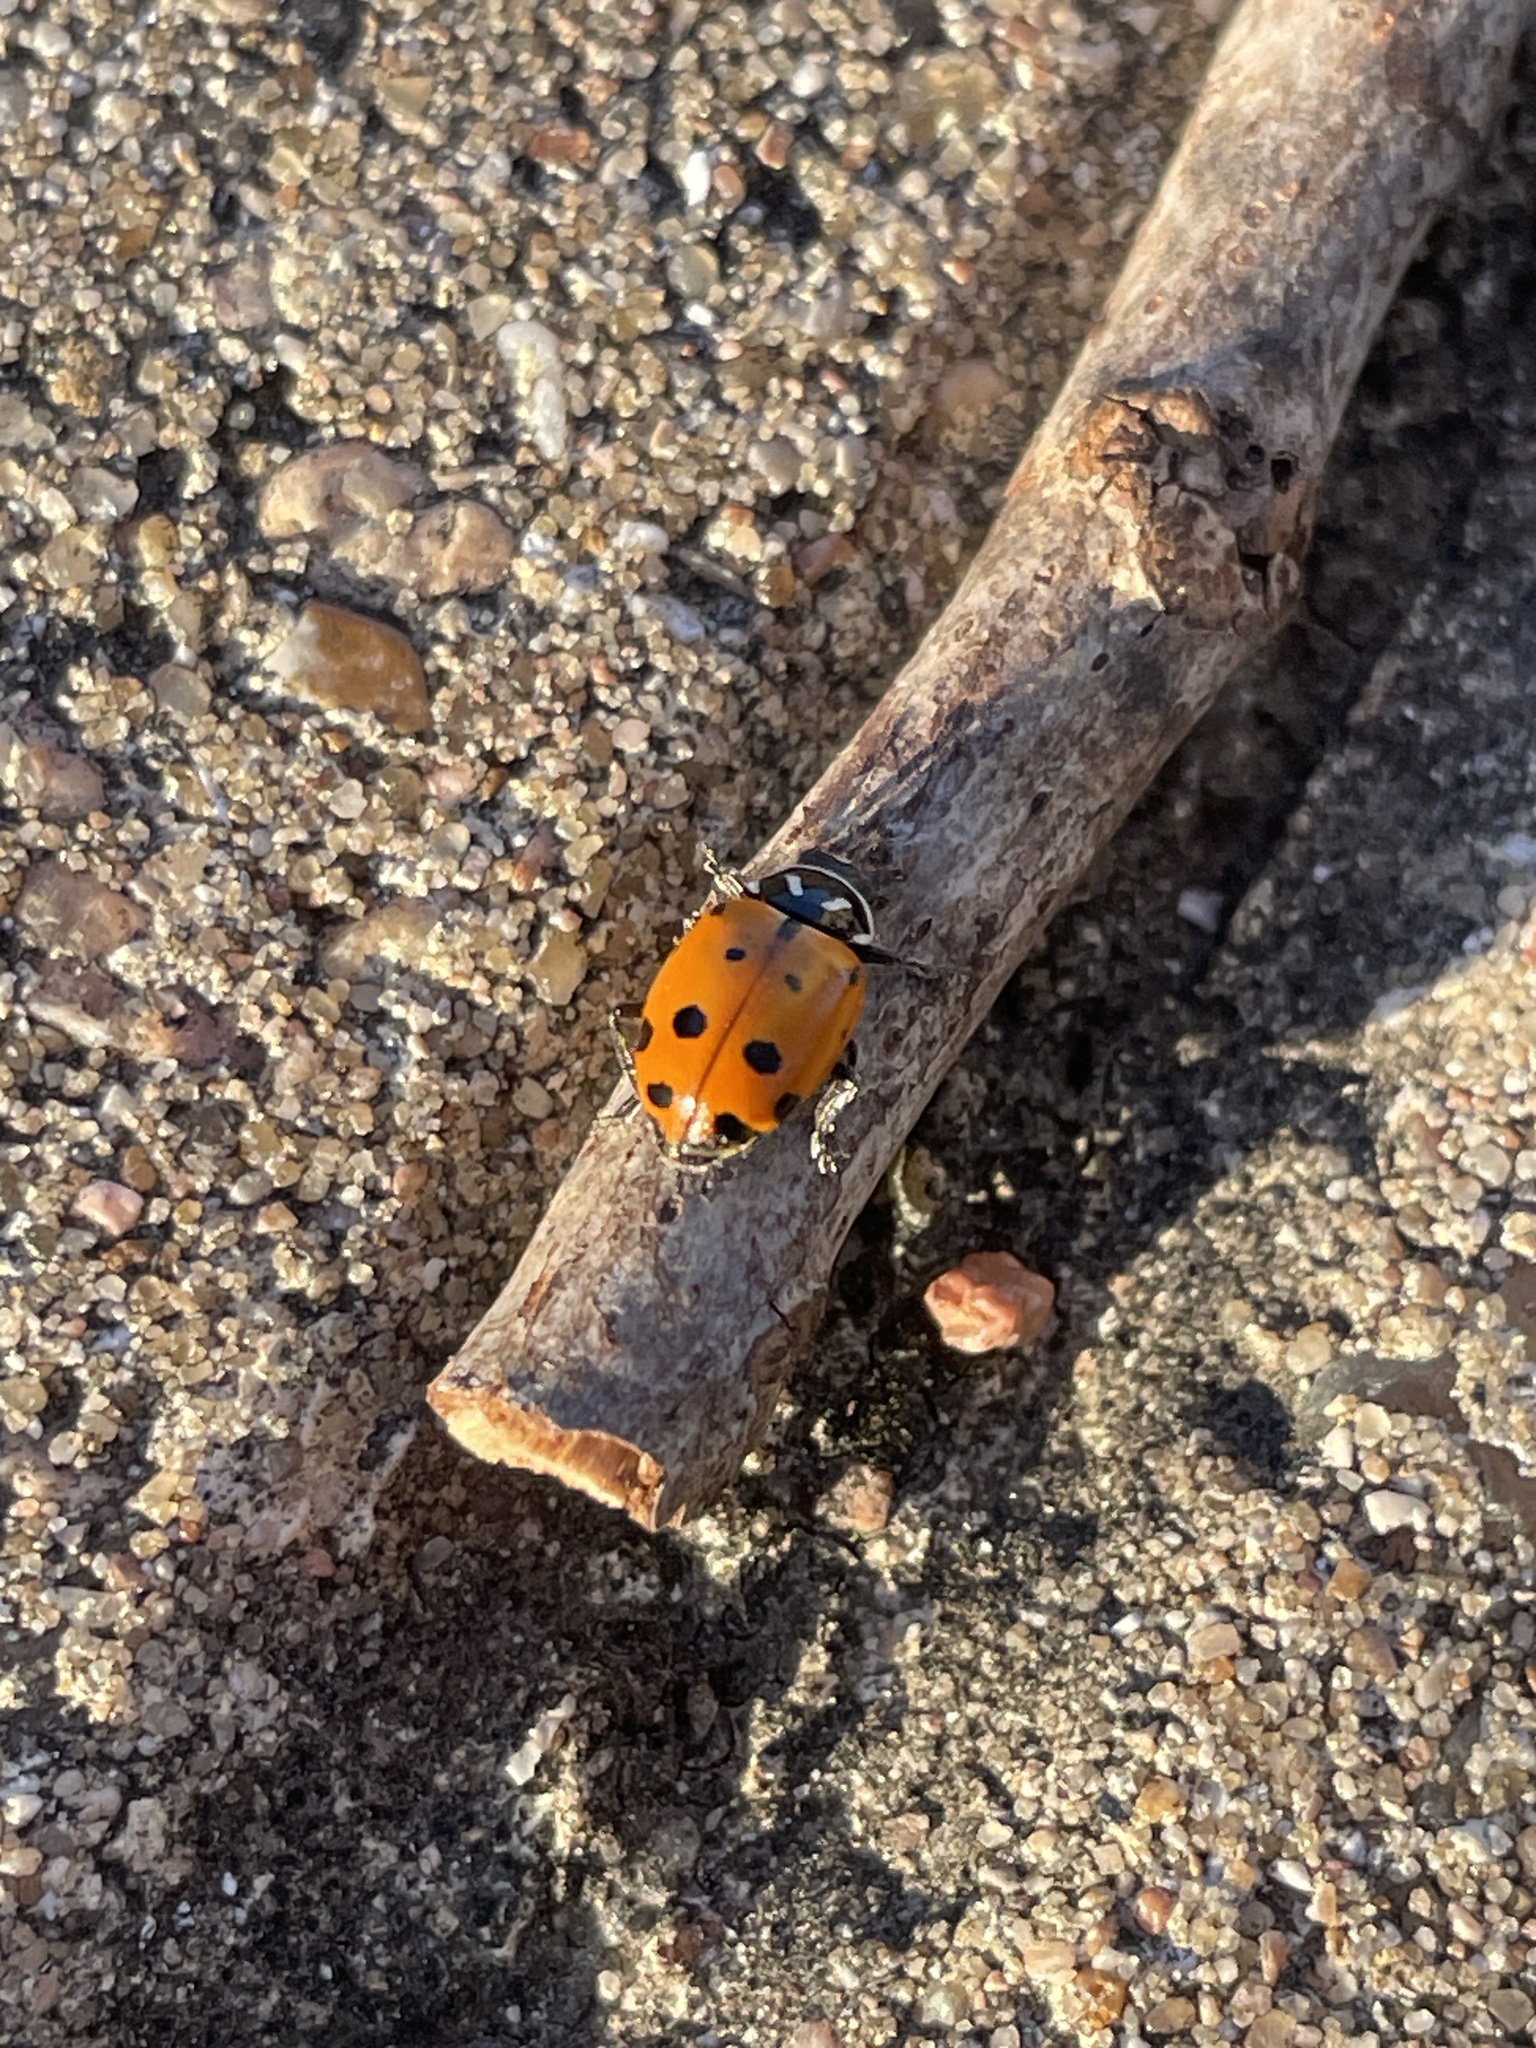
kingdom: Animalia
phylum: Arthropoda
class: Insecta
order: Coleoptera
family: Coccinellidae
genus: Hippodamia
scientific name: Hippodamia convergens
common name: Convergent lady beetle
